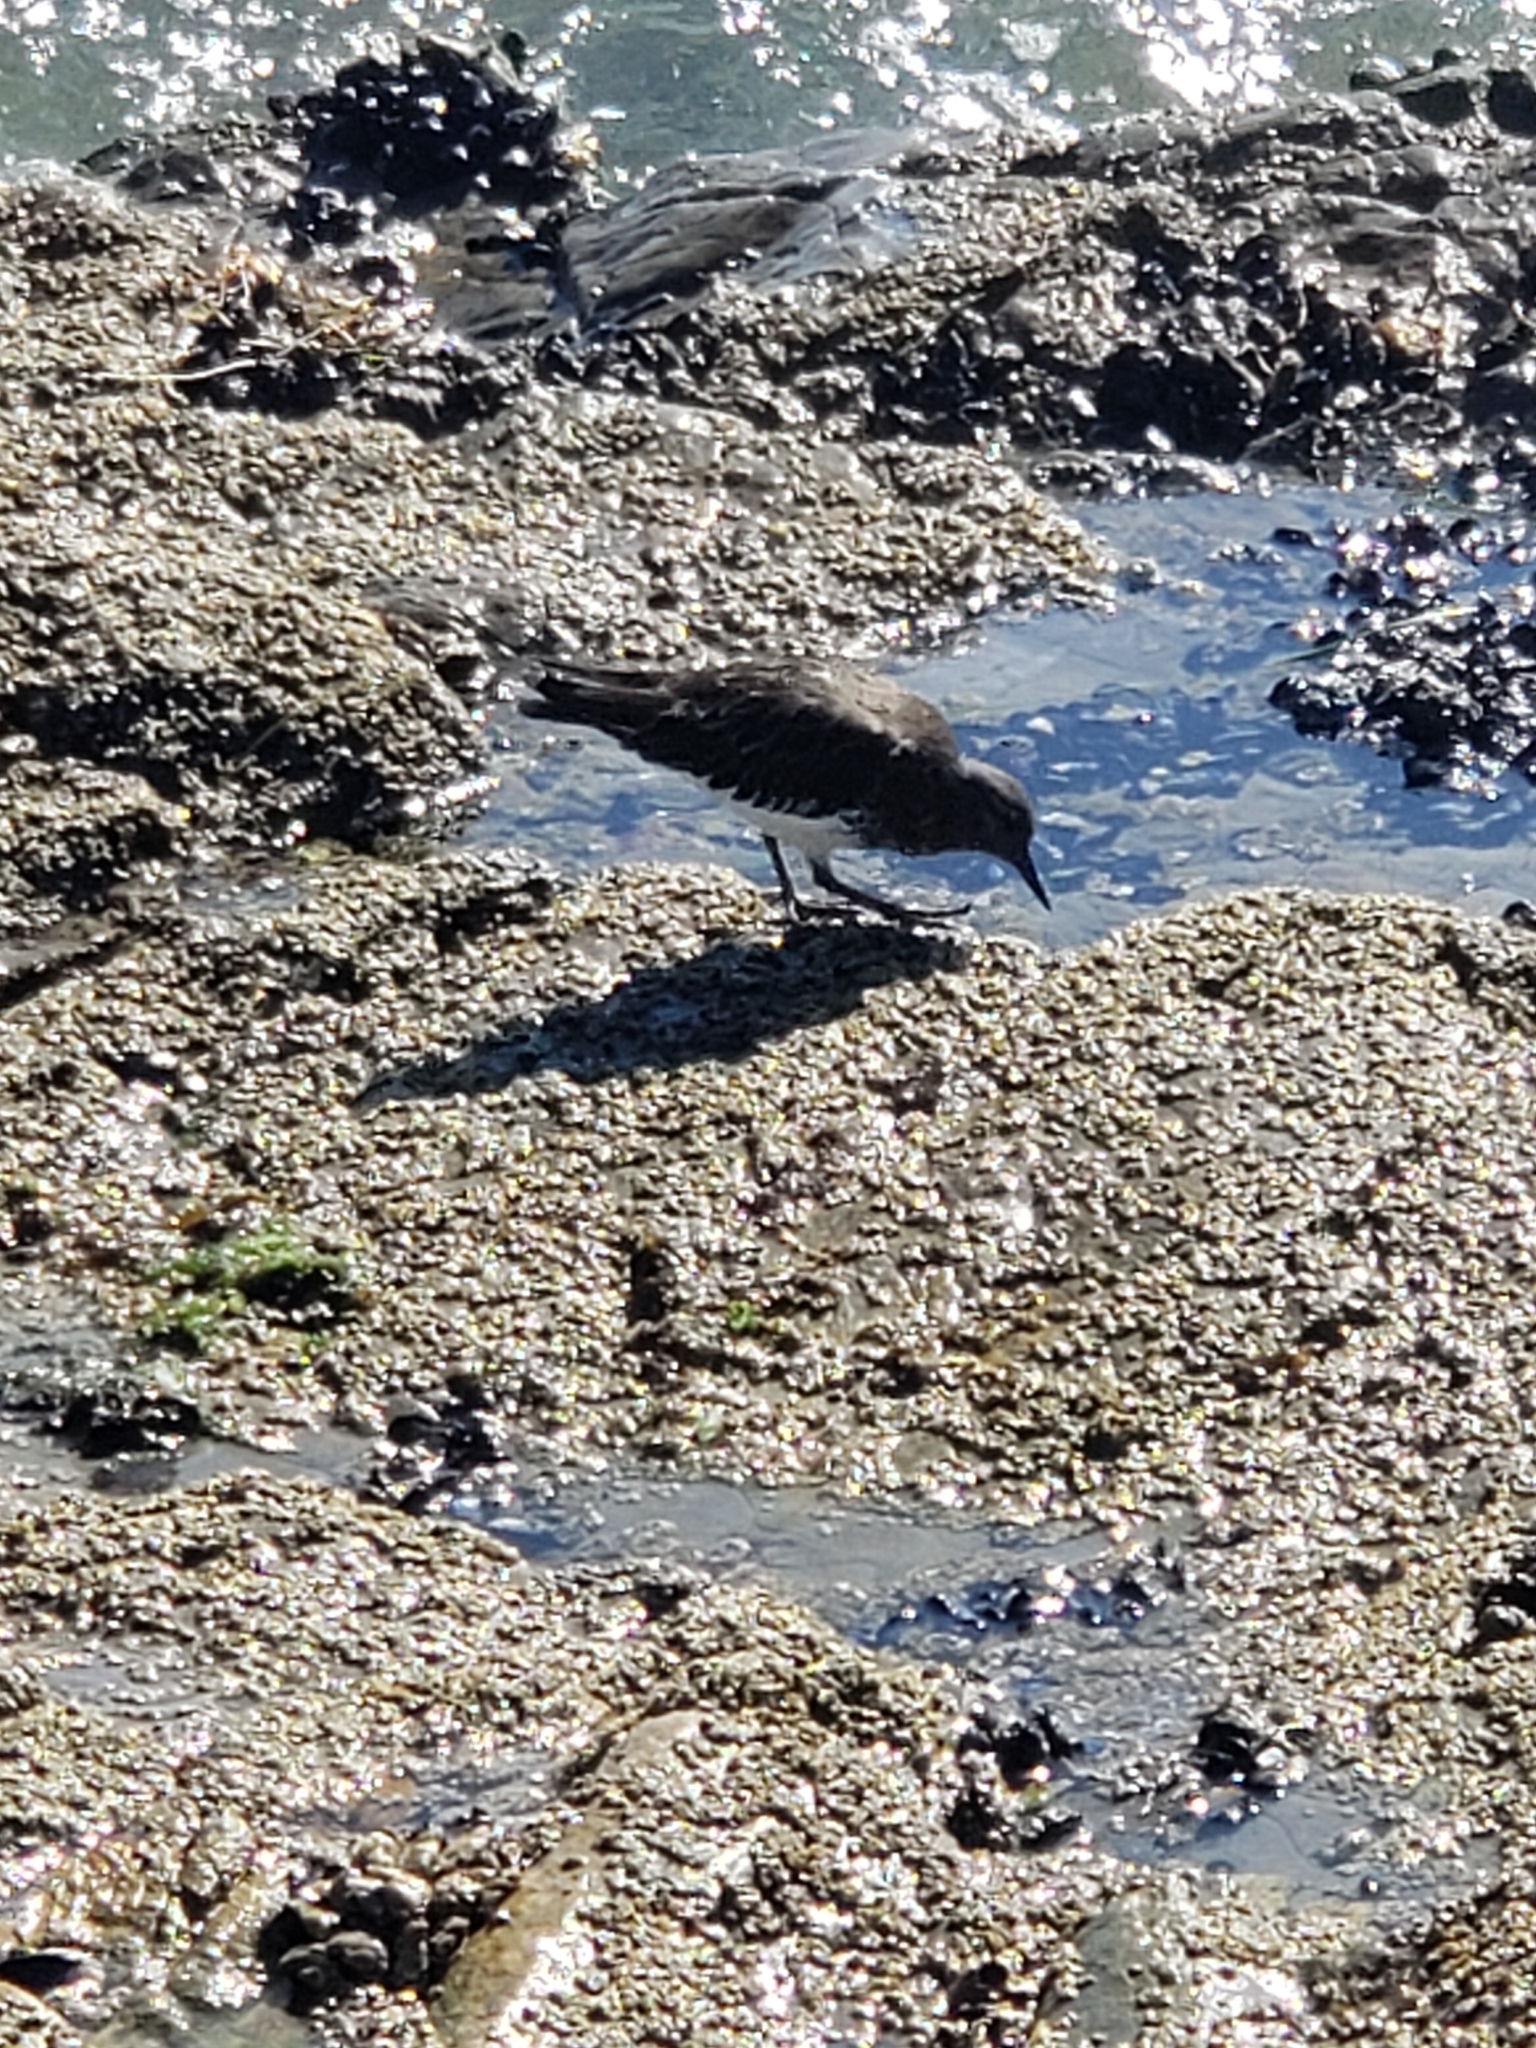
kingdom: Animalia
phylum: Chordata
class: Aves
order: Charadriiformes
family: Scolopacidae
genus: Arenaria
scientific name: Arenaria melanocephala
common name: Black turnstone
